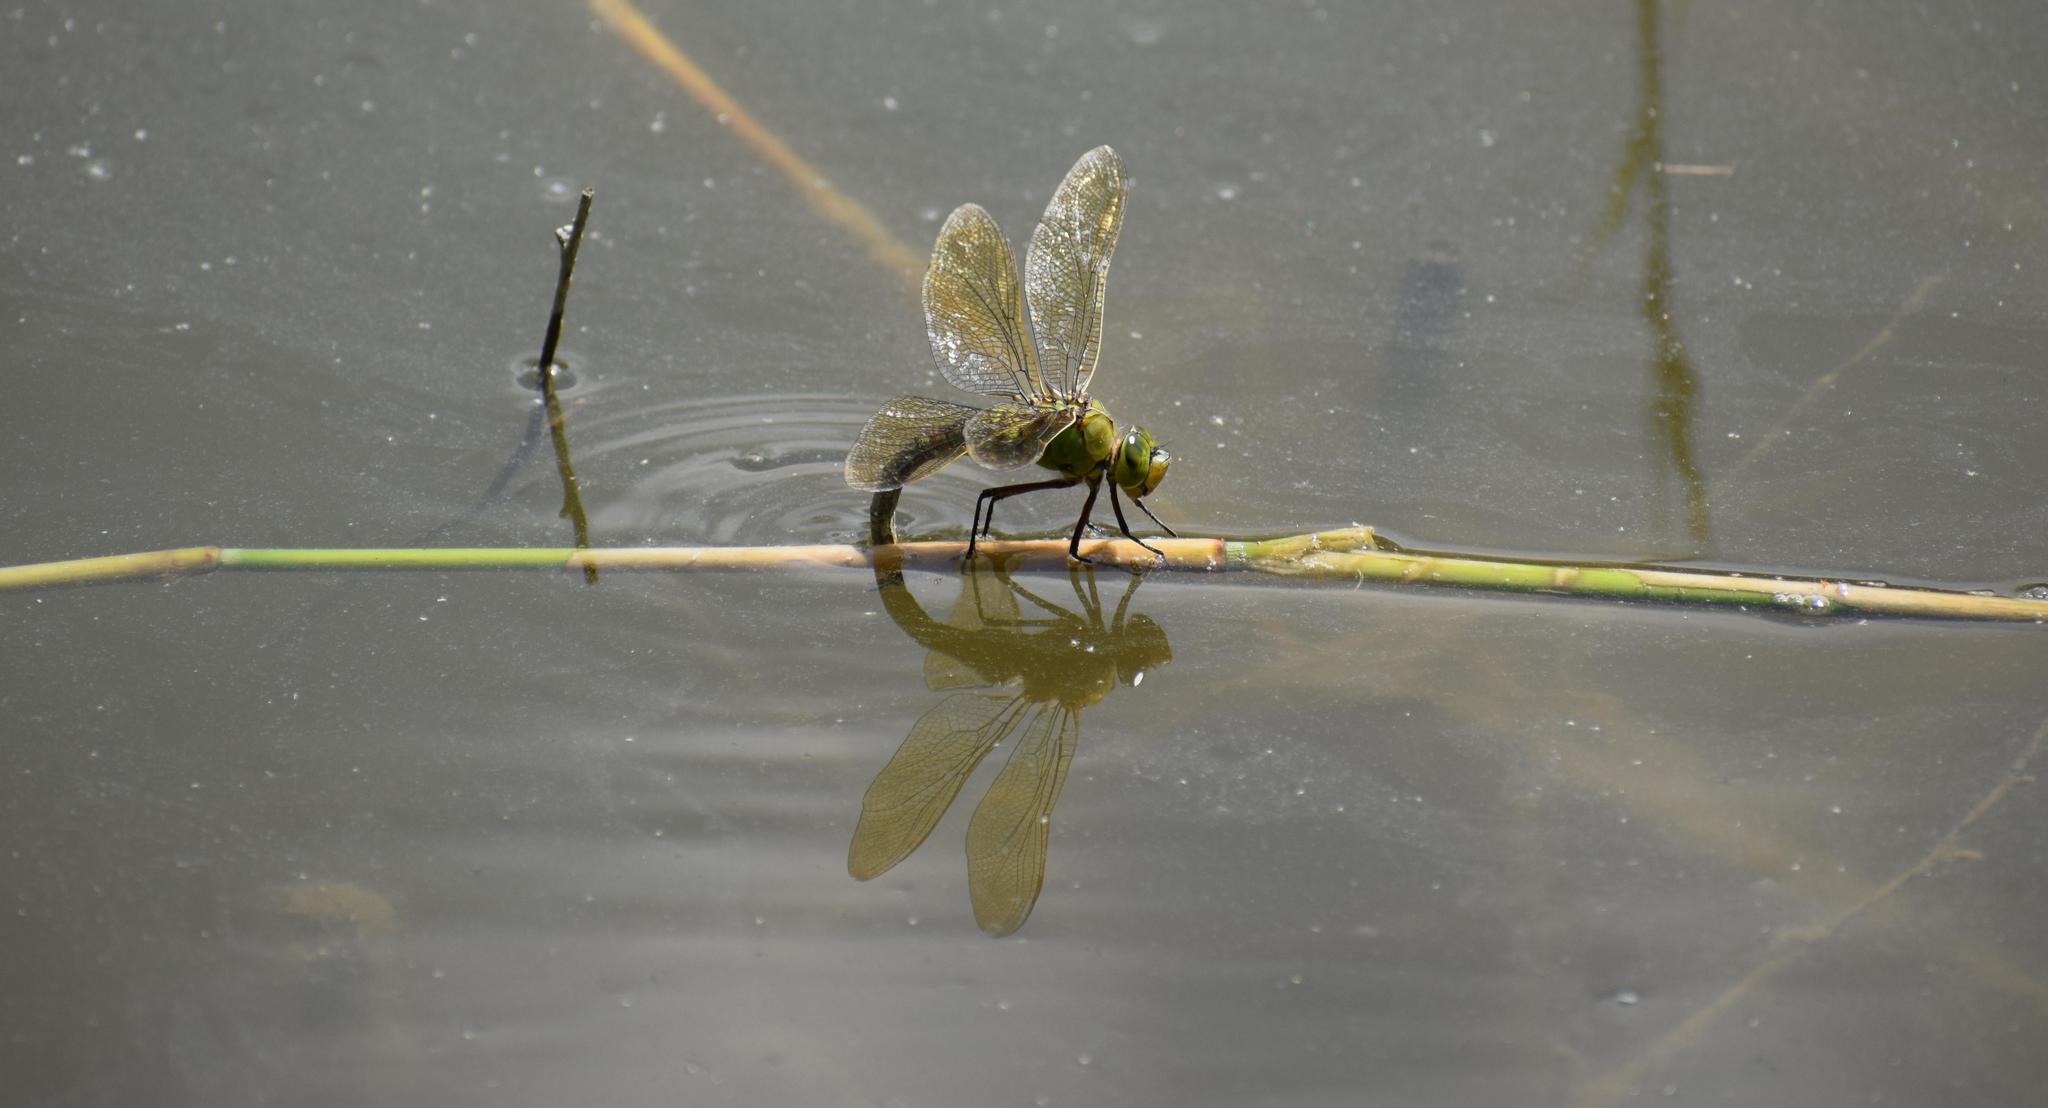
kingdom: Animalia
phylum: Arthropoda
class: Insecta
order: Odonata
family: Aeshnidae
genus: Anax
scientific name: Anax imperator
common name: Emperor dragonfly
